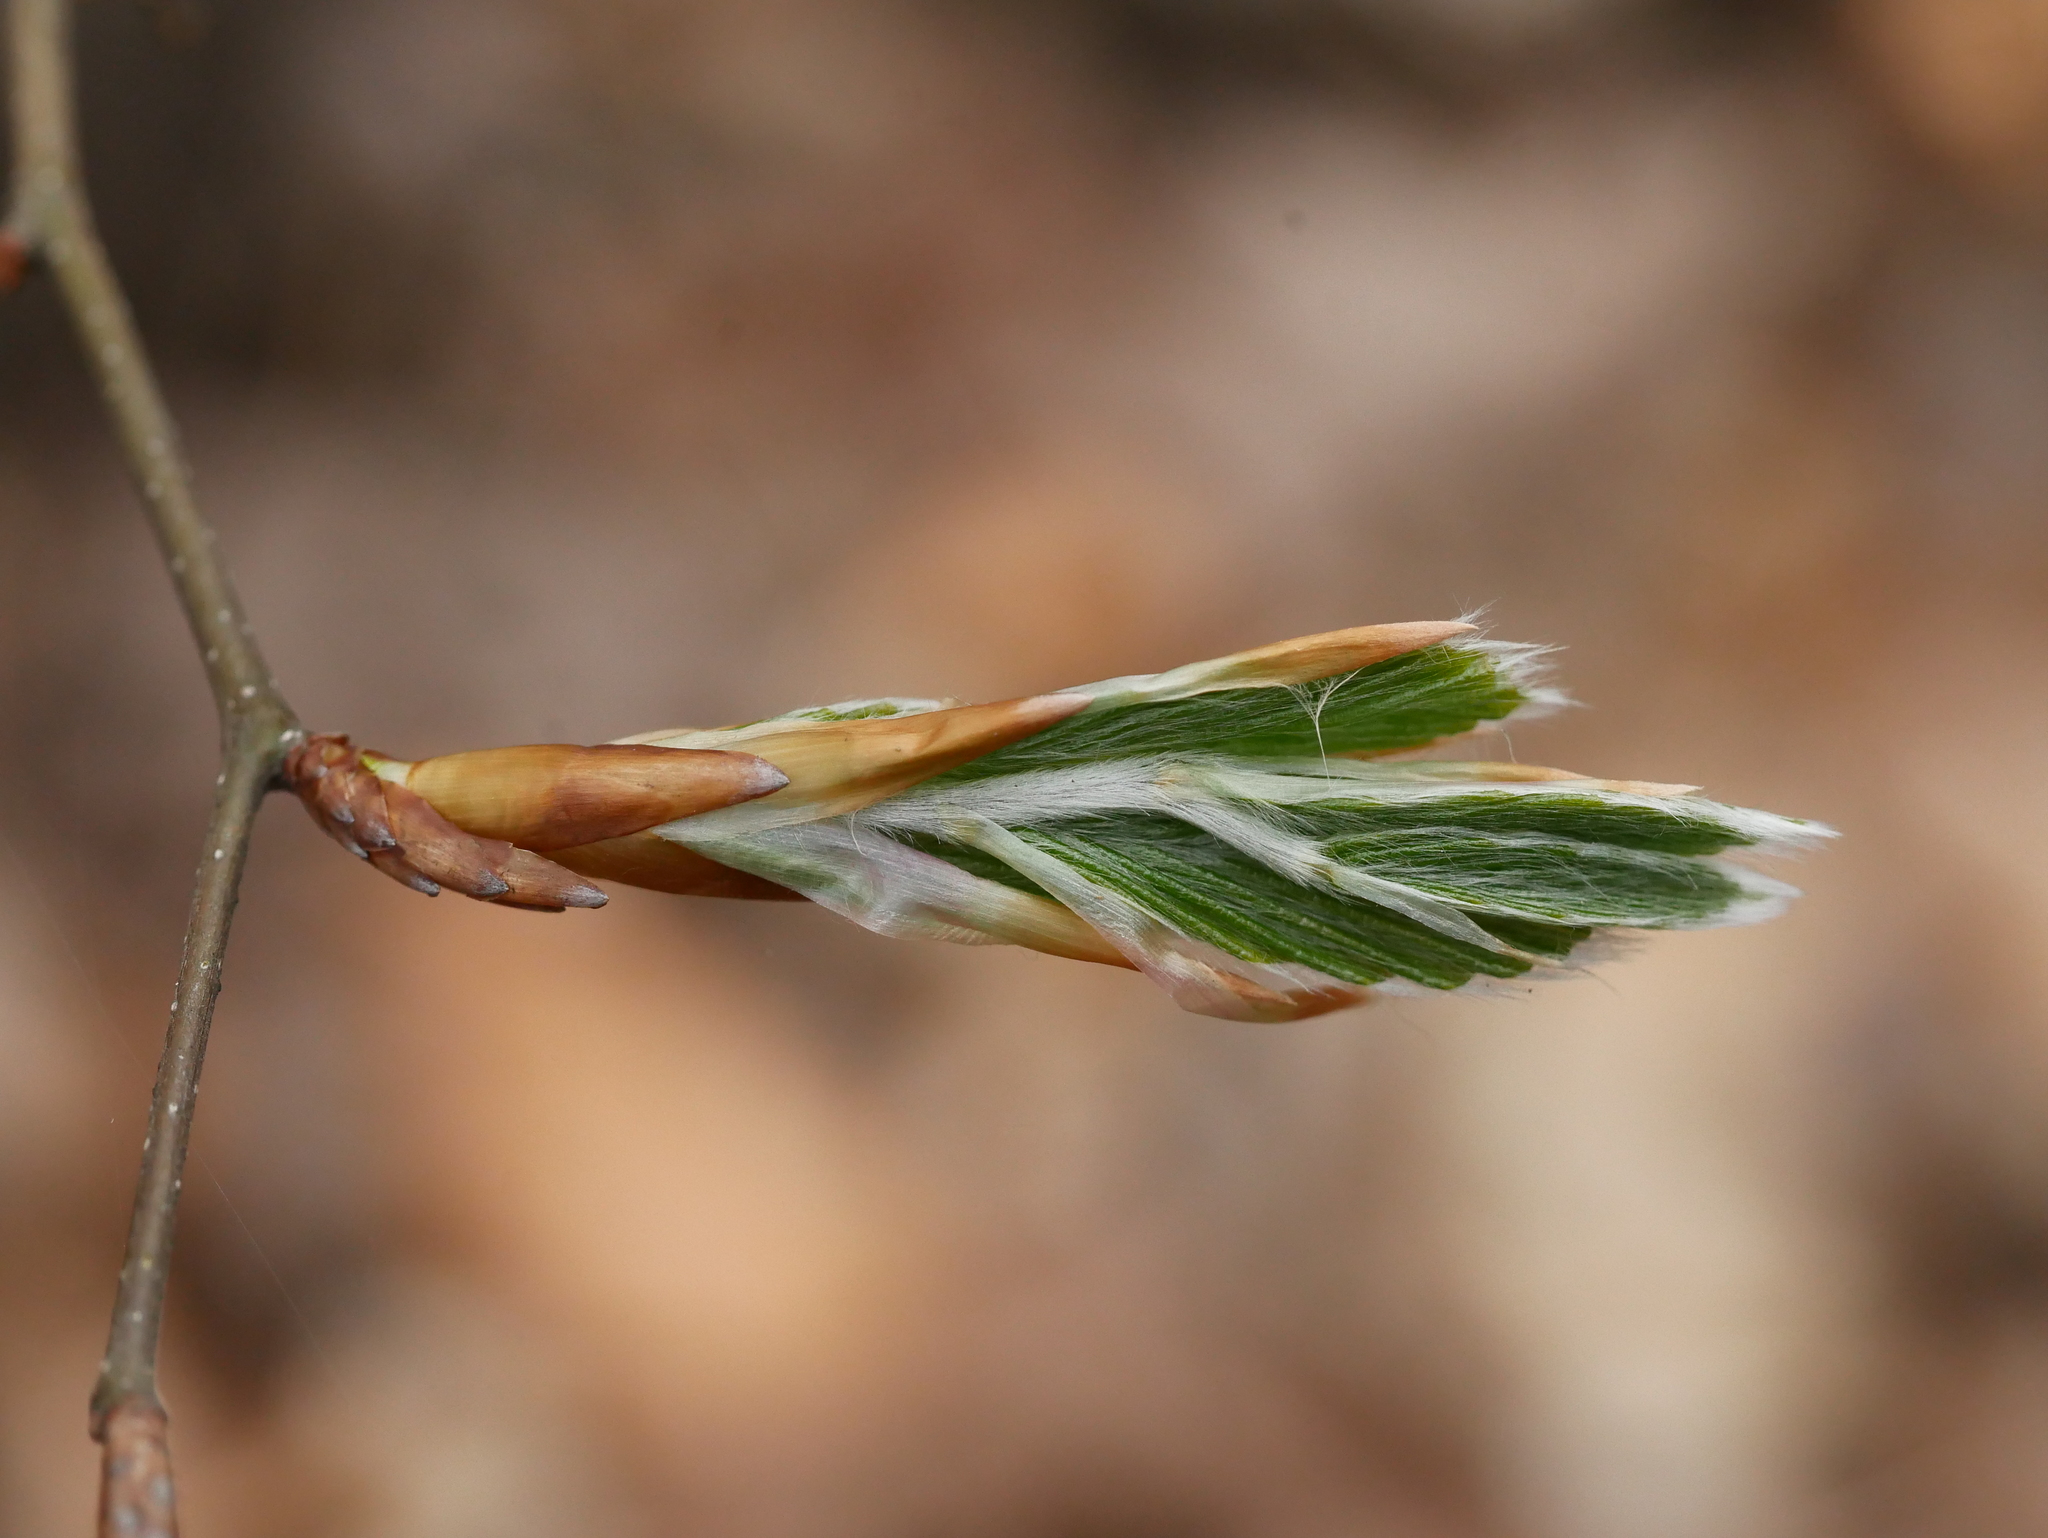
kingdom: Plantae
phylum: Tracheophyta
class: Magnoliopsida
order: Fagales
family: Fagaceae
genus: Fagus
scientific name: Fagus sylvatica
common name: Beech
